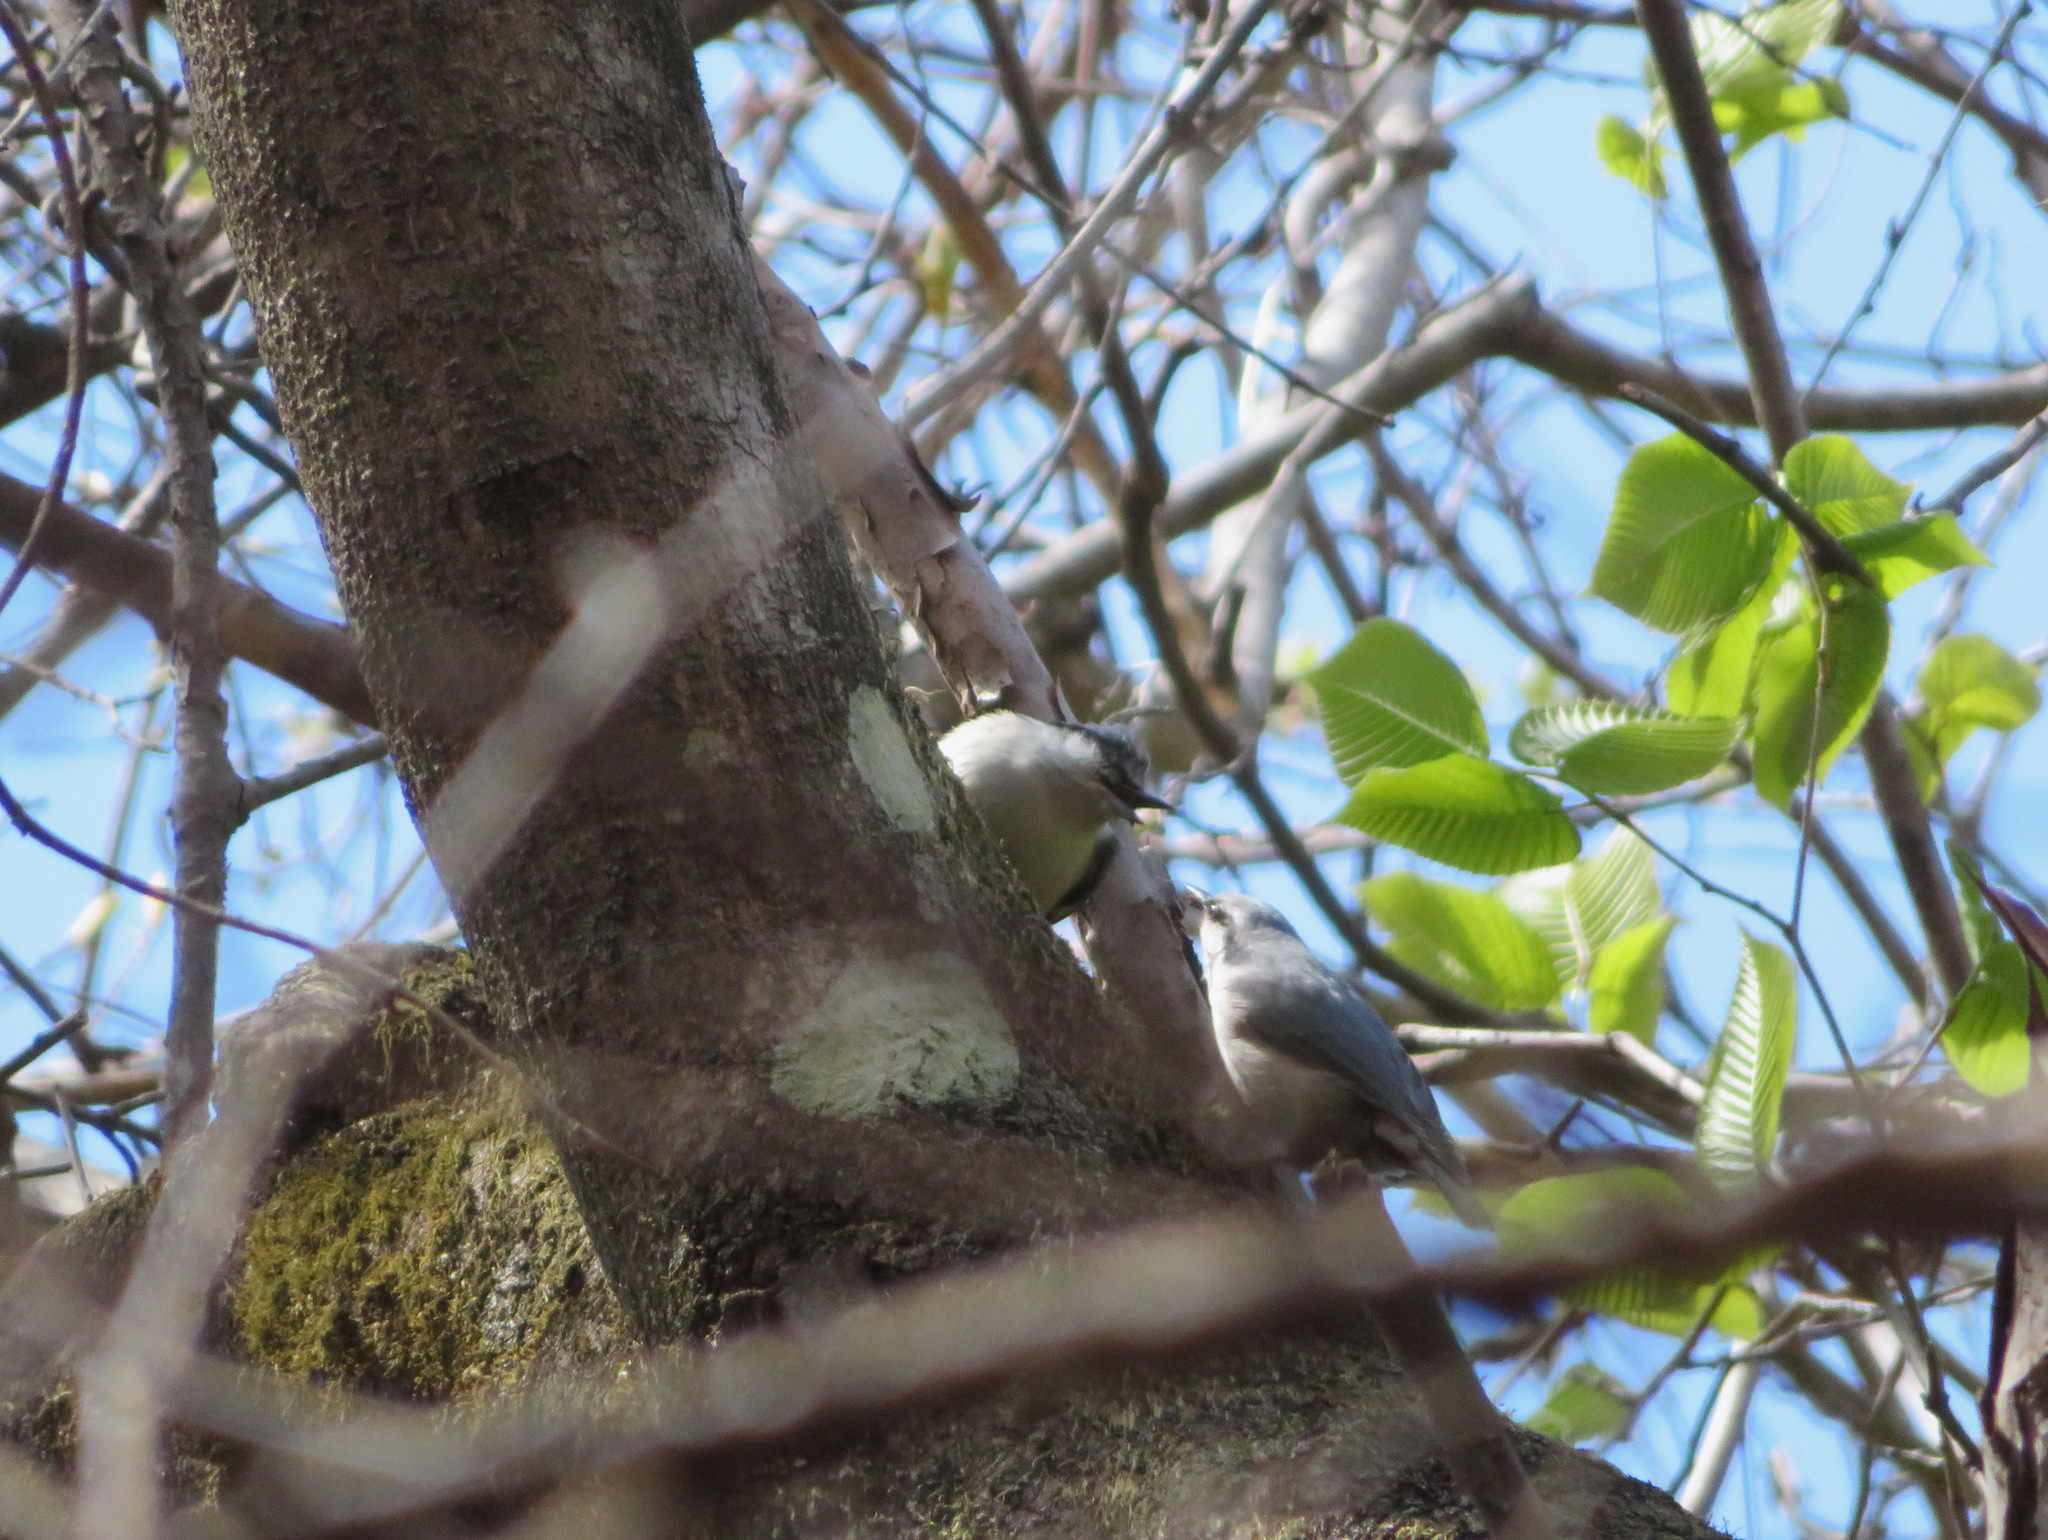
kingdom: Animalia
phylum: Chordata
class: Aves
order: Passeriformes
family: Sittidae
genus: Sitta
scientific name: Sitta europaea
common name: Eurasian nuthatch
